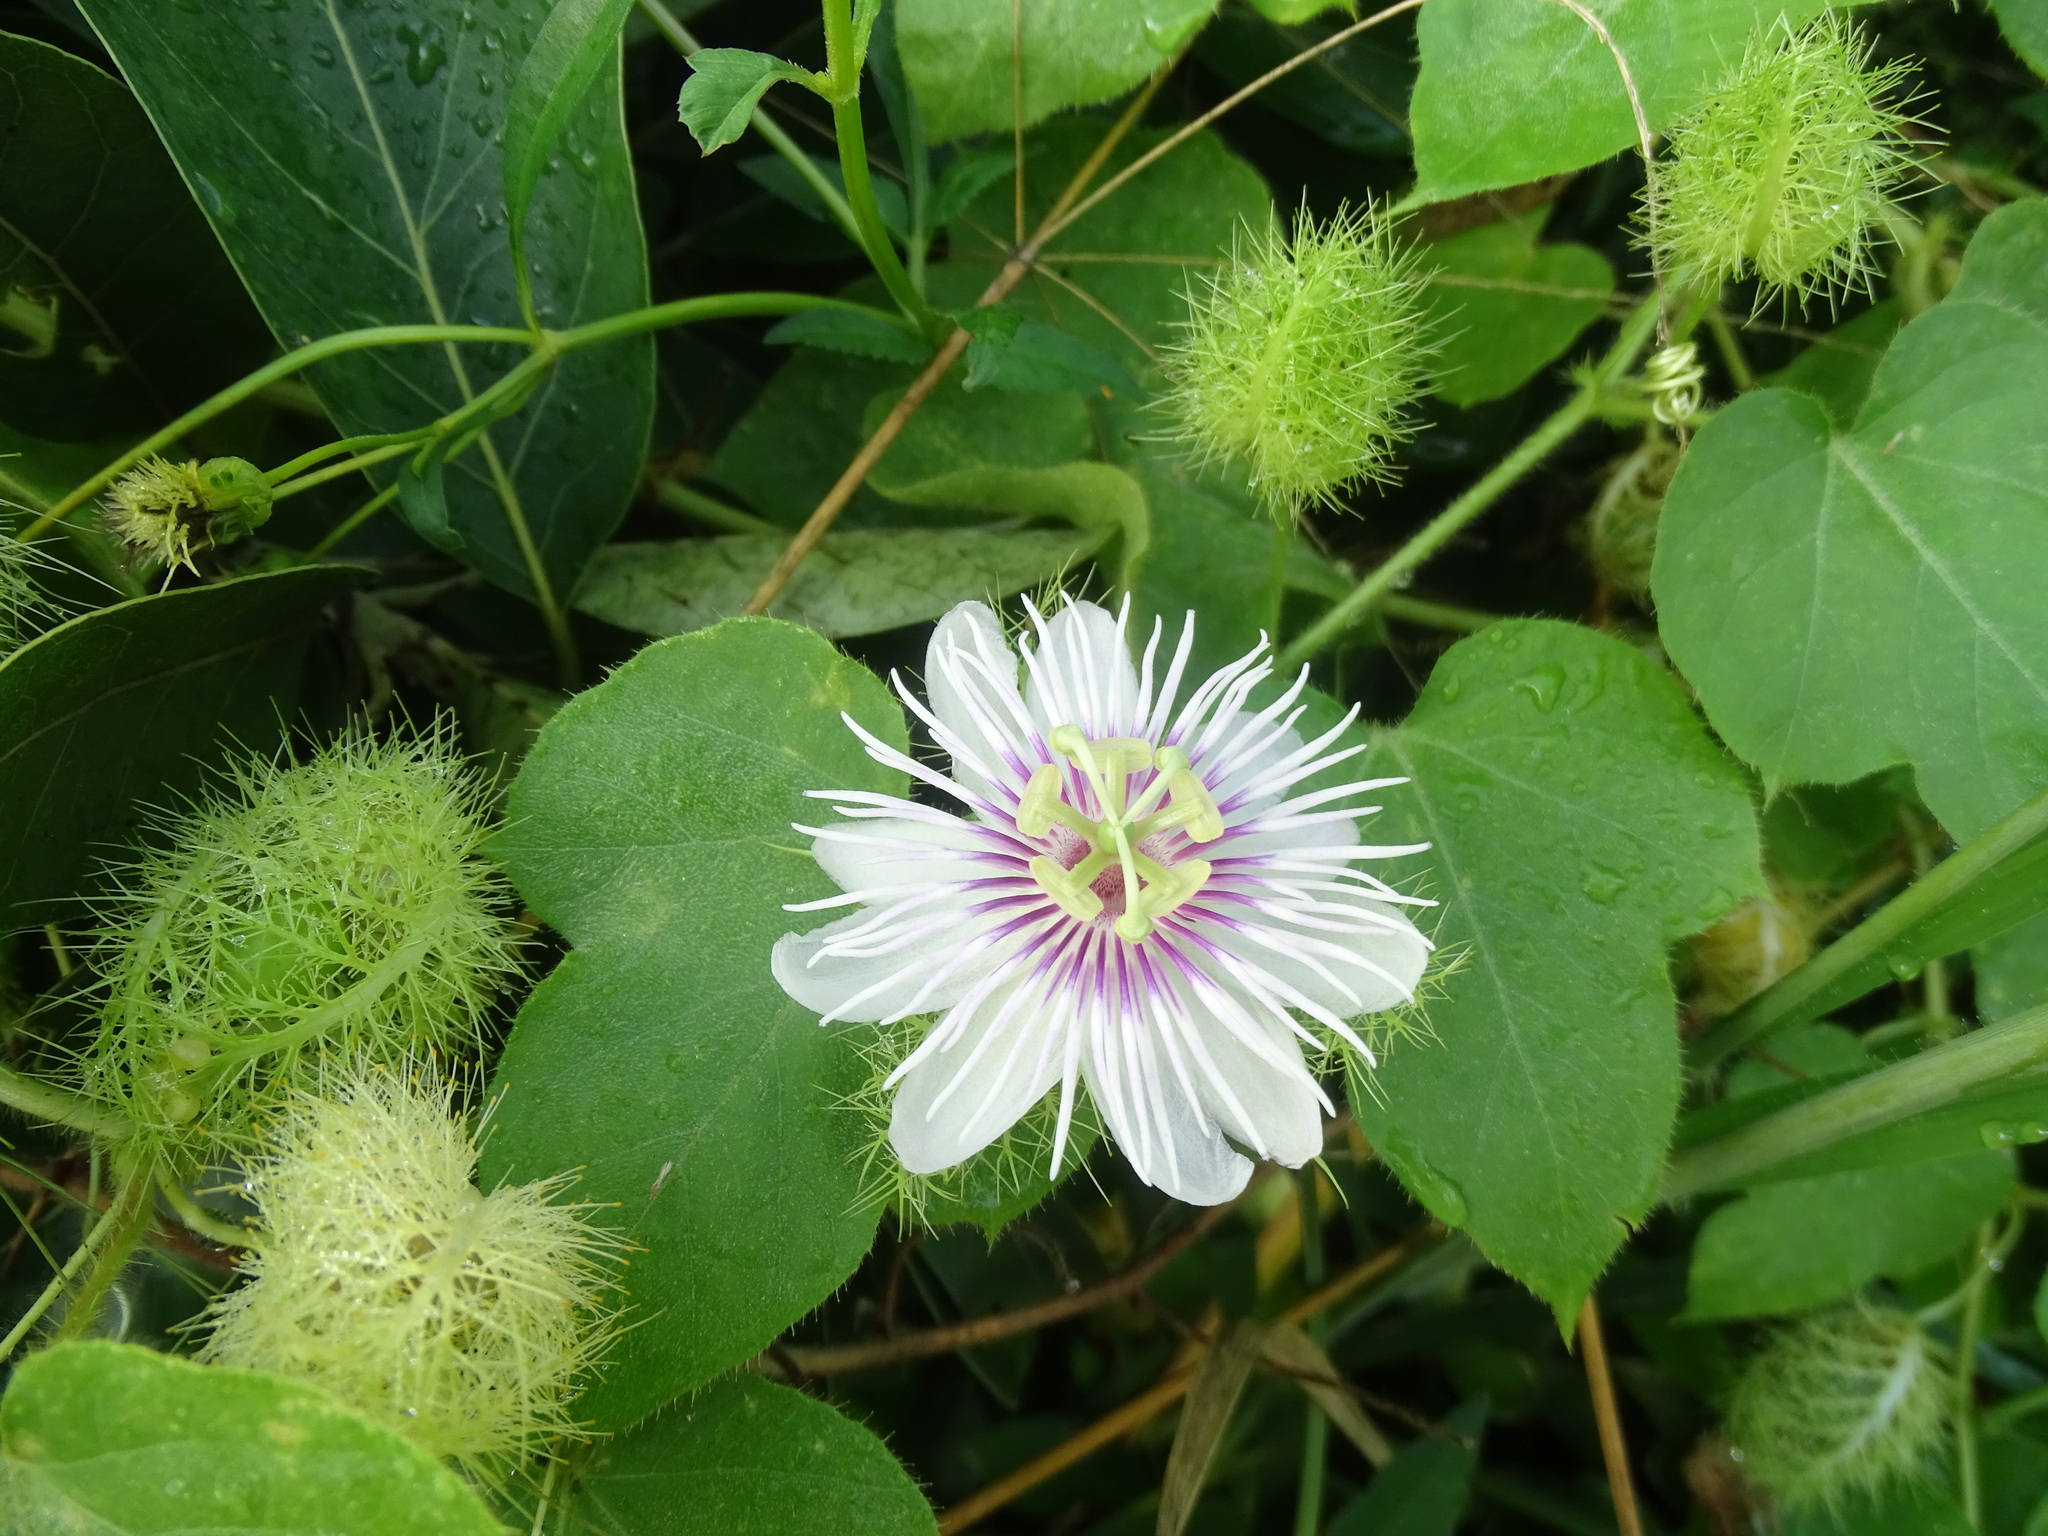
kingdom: Plantae
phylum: Tracheophyta
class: Magnoliopsida
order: Malpighiales
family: Passifloraceae
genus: Passiflora
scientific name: Passiflora vesicaria
